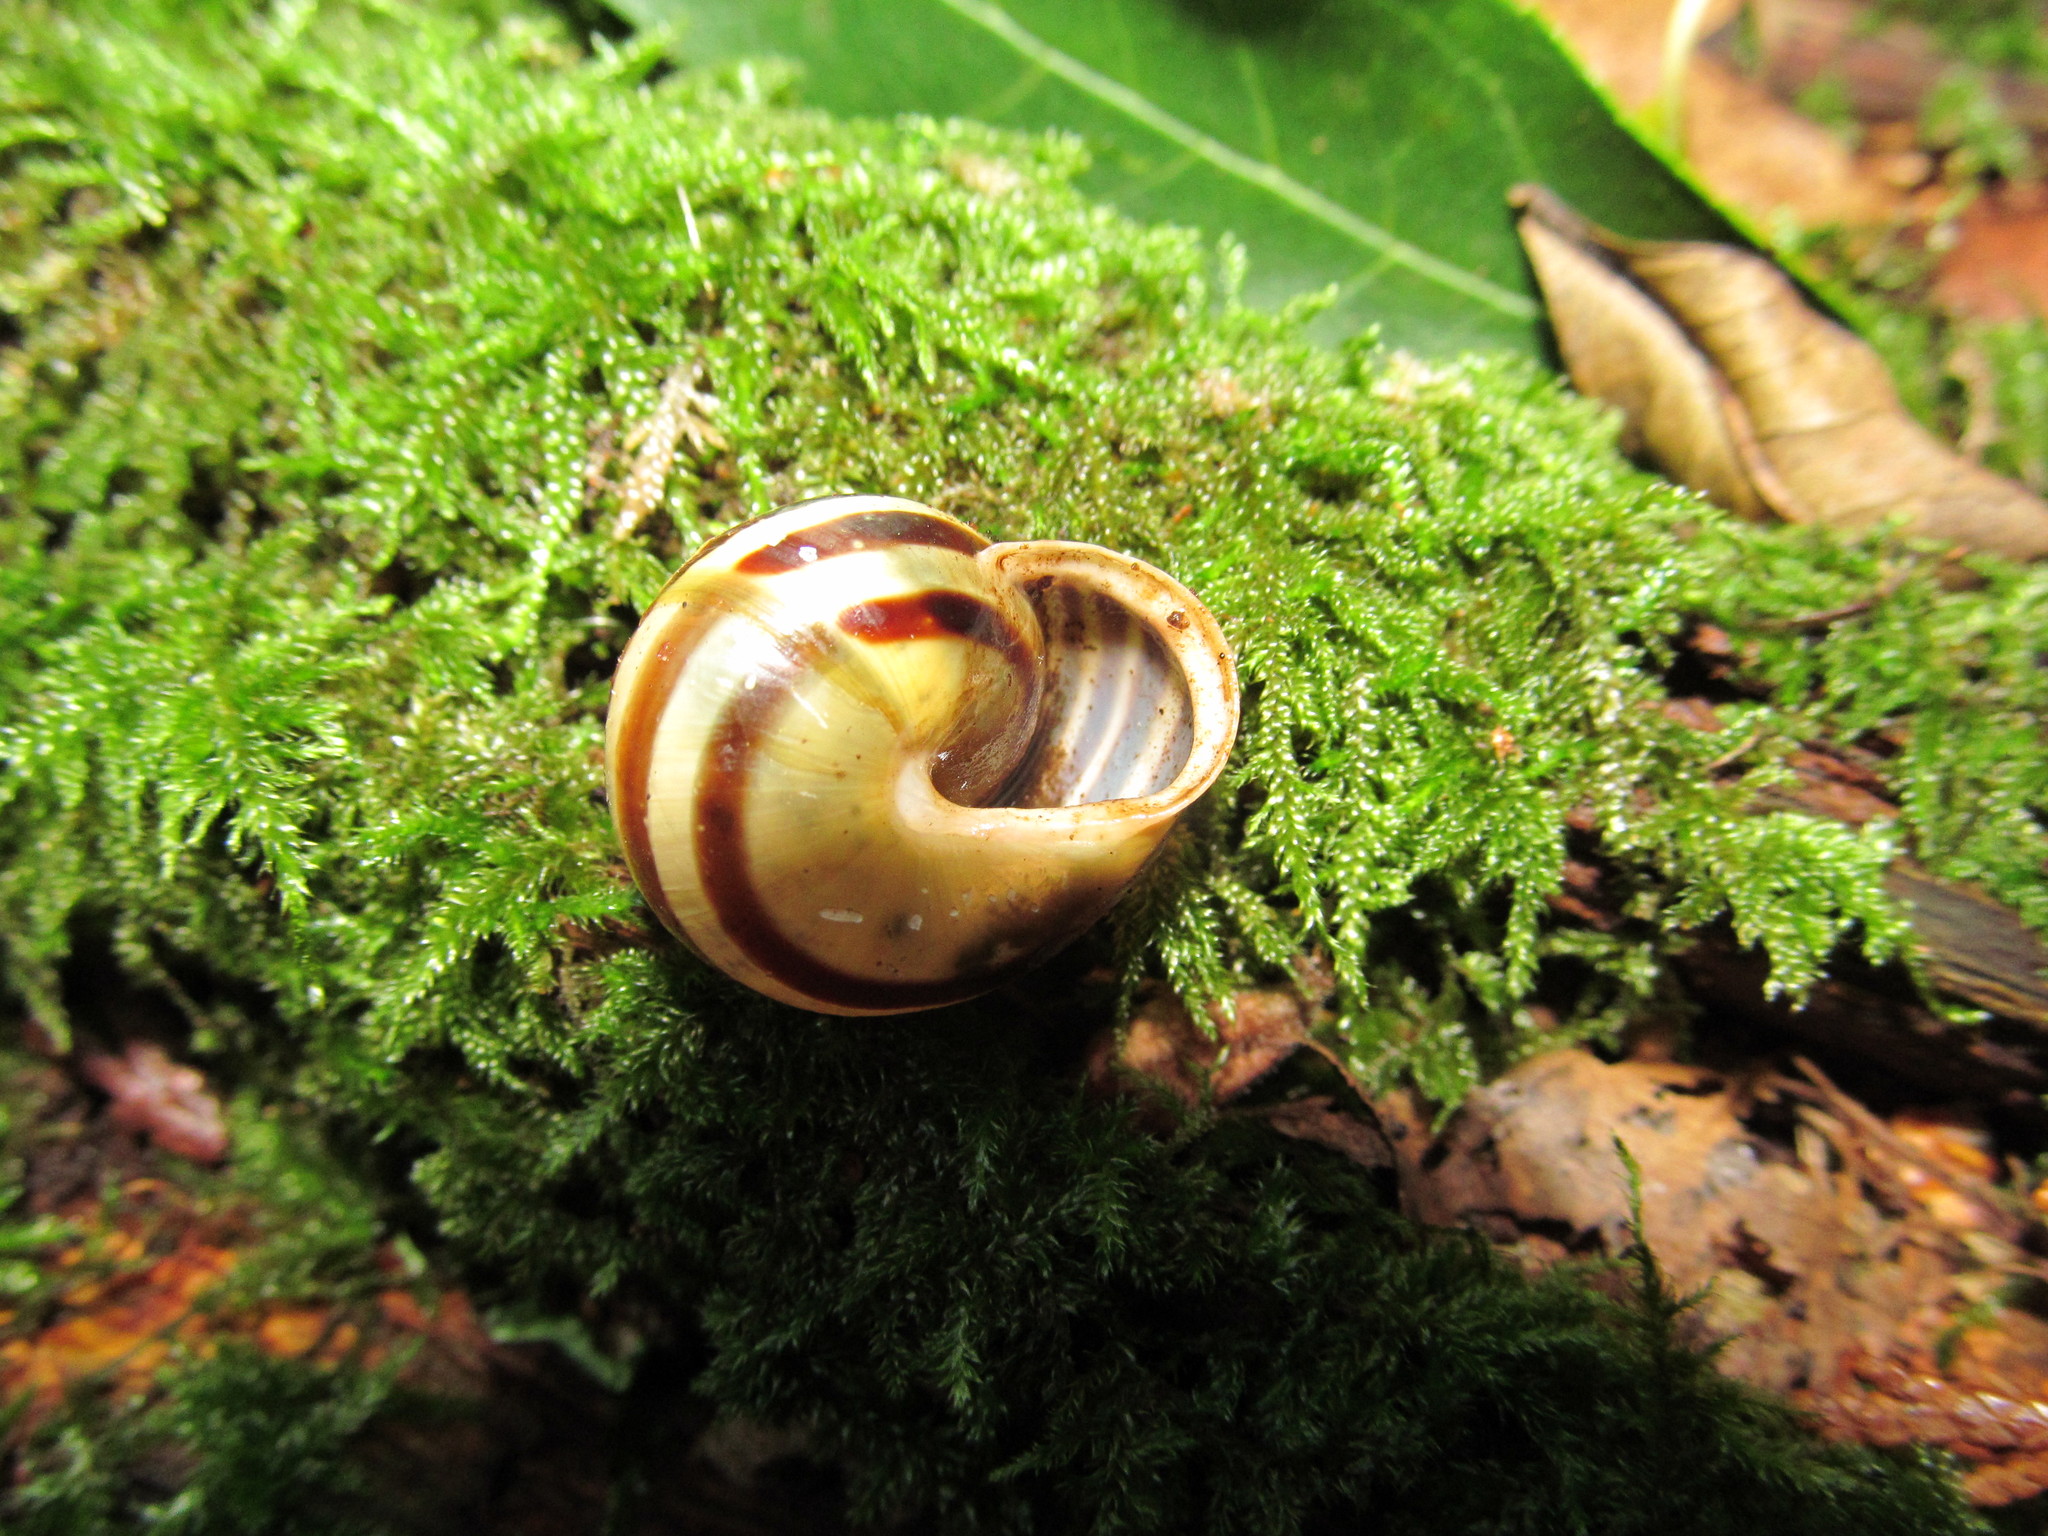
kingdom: Animalia
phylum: Mollusca
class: Gastropoda
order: Stylommatophora
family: Helicidae
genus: Cepaea
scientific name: Cepaea hortensis
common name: White-lip gardensnail
